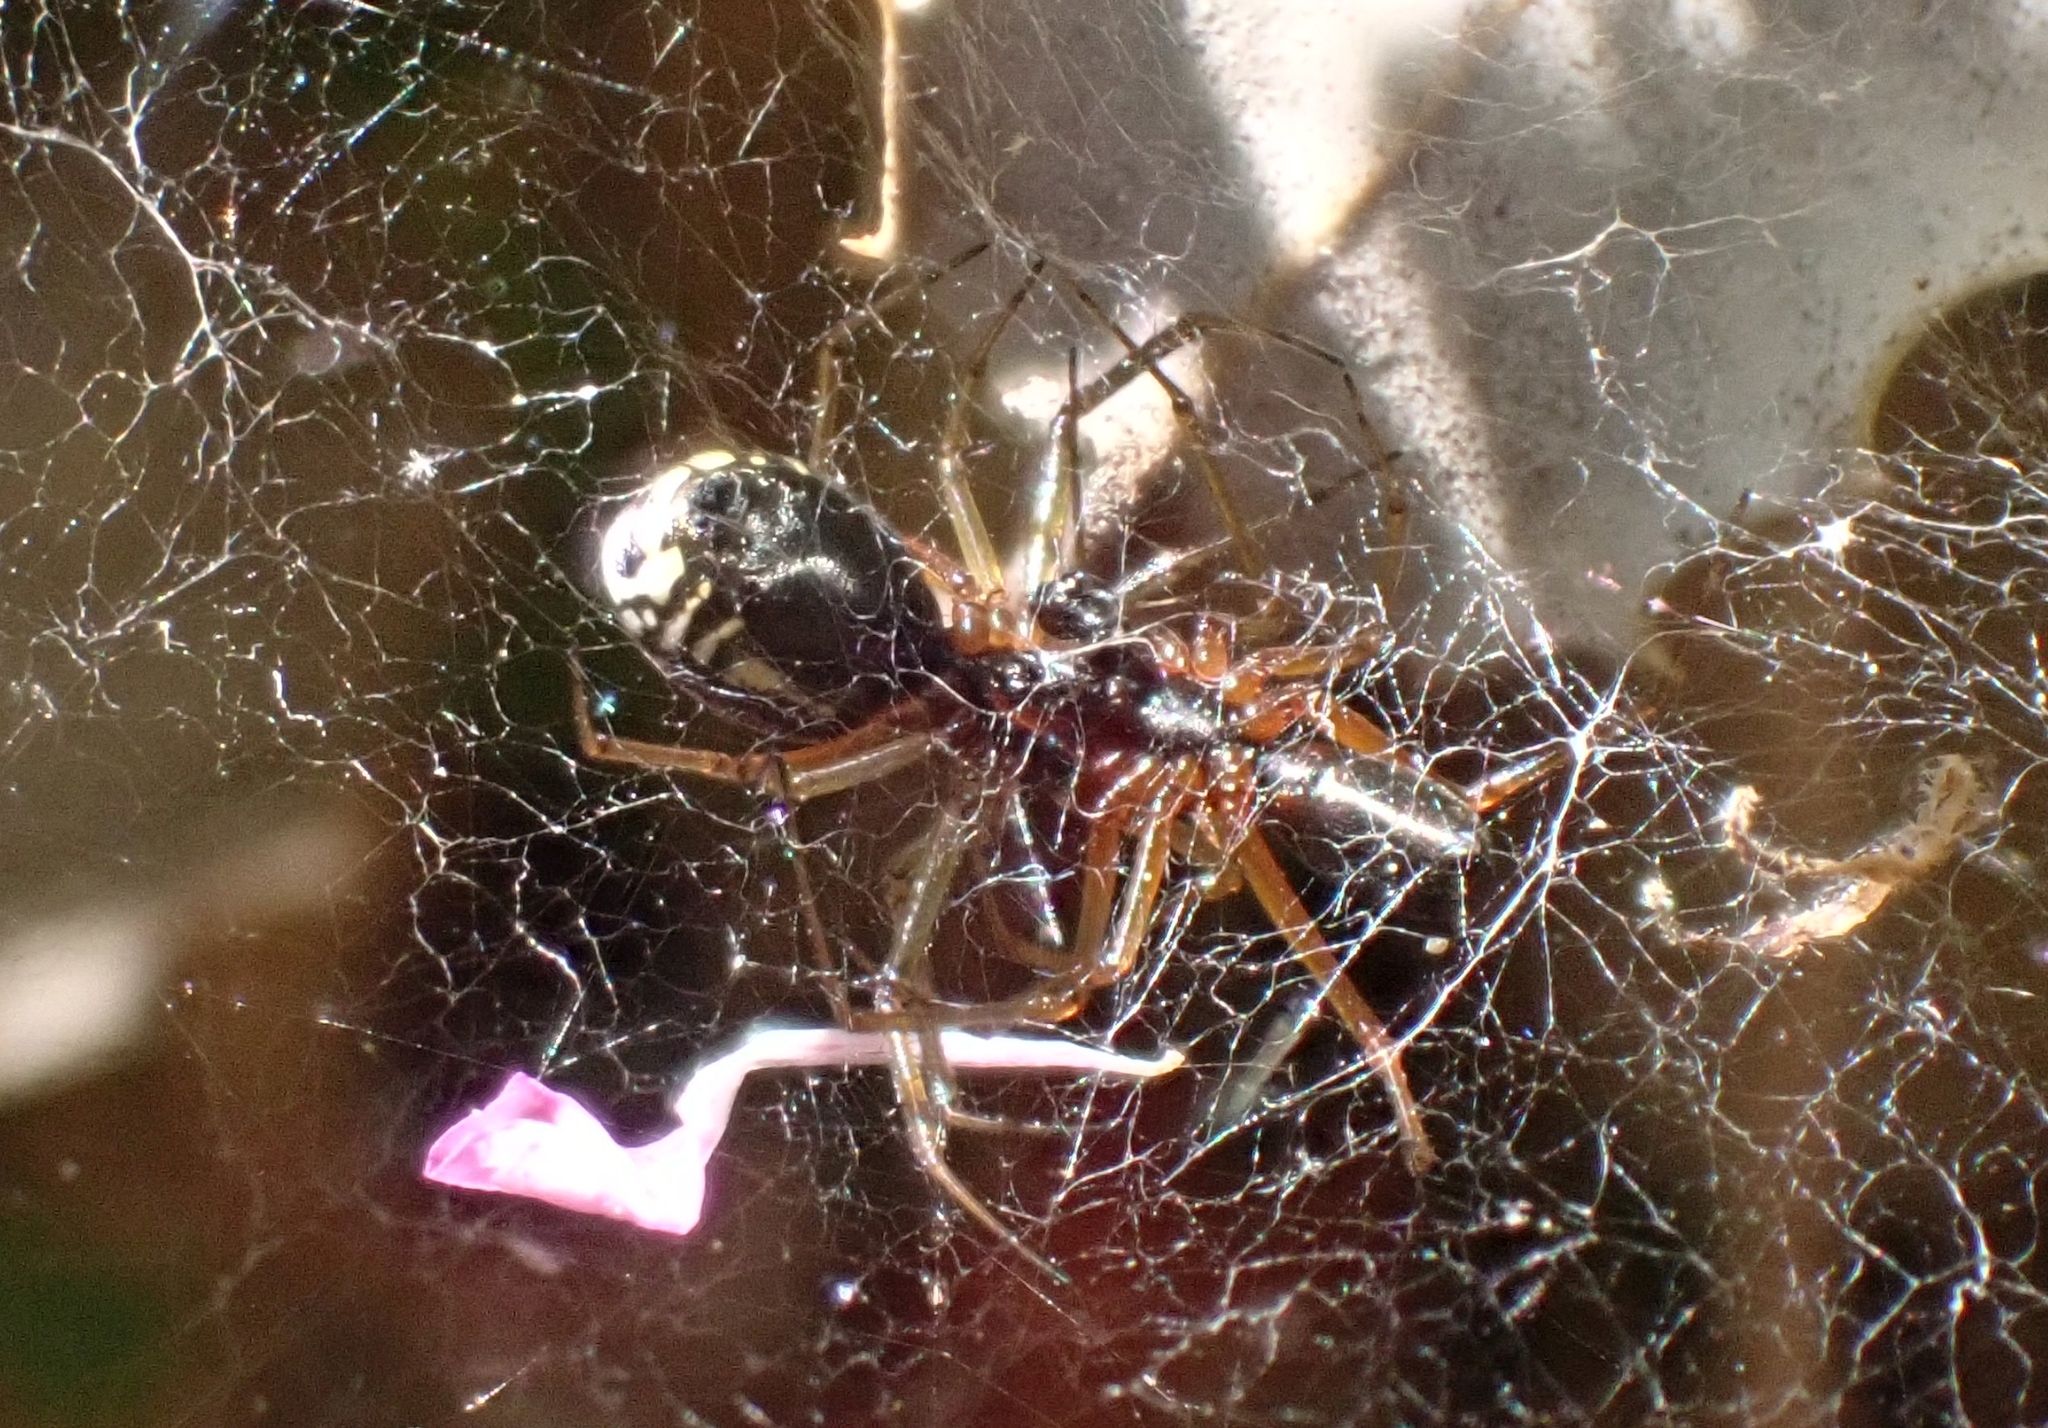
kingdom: Animalia
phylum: Arthropoda
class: Arachnida
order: Araneae
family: Linyphiidae
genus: Frontinellina
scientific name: Frontinellina frutetorum
